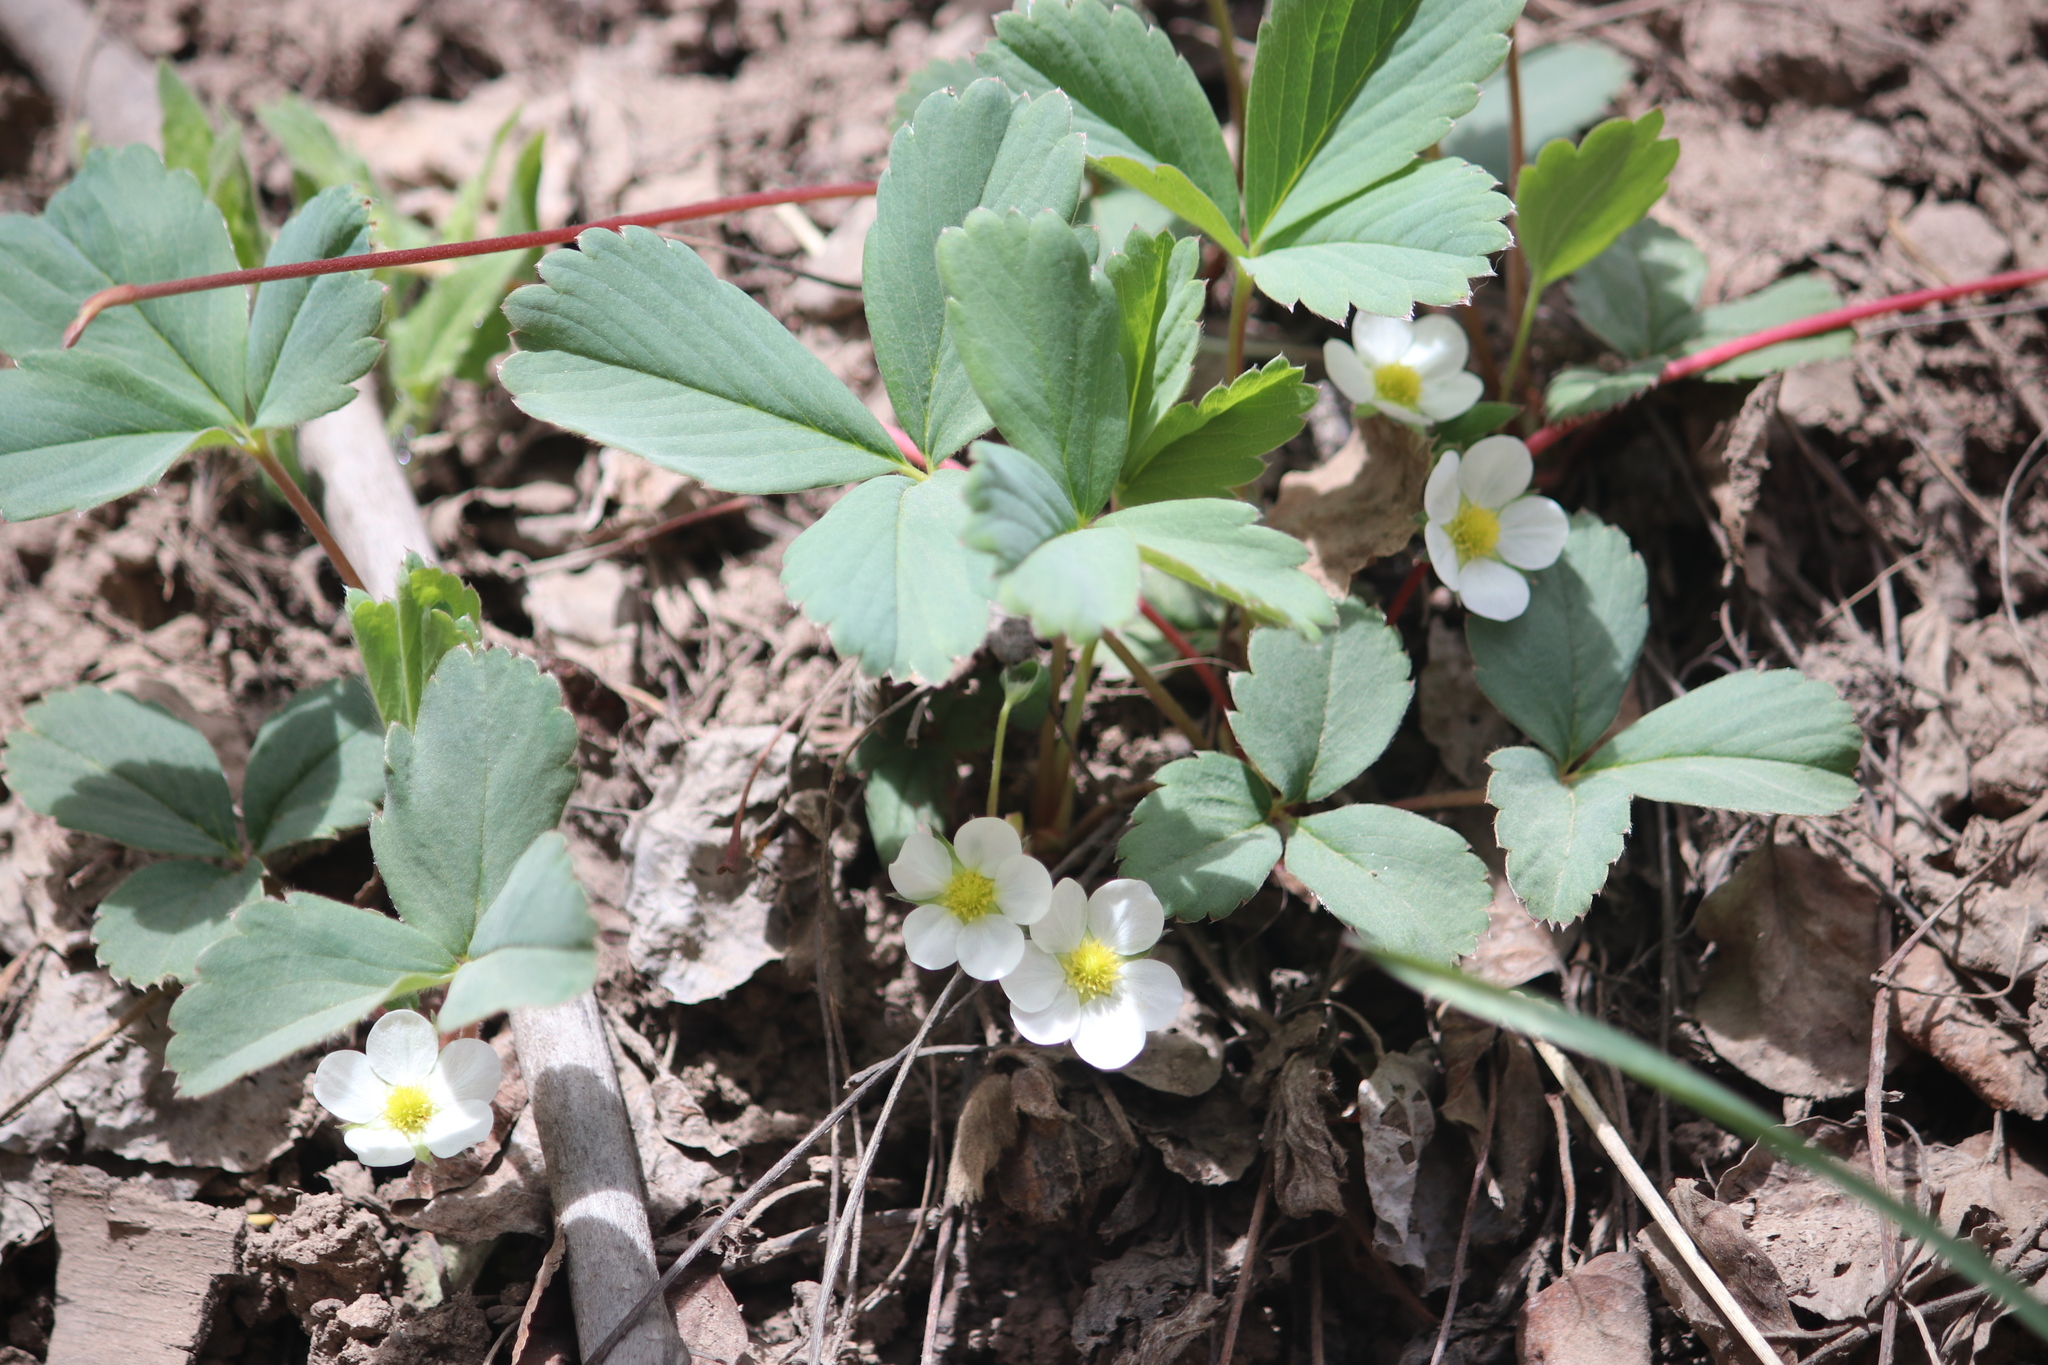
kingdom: Plantae
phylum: Tracheophyta
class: Magnoliopsida
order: Rosales
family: Rosaceae
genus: Fragaria
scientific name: Fragaria virginiana
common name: Thickleaved wild strawberry
